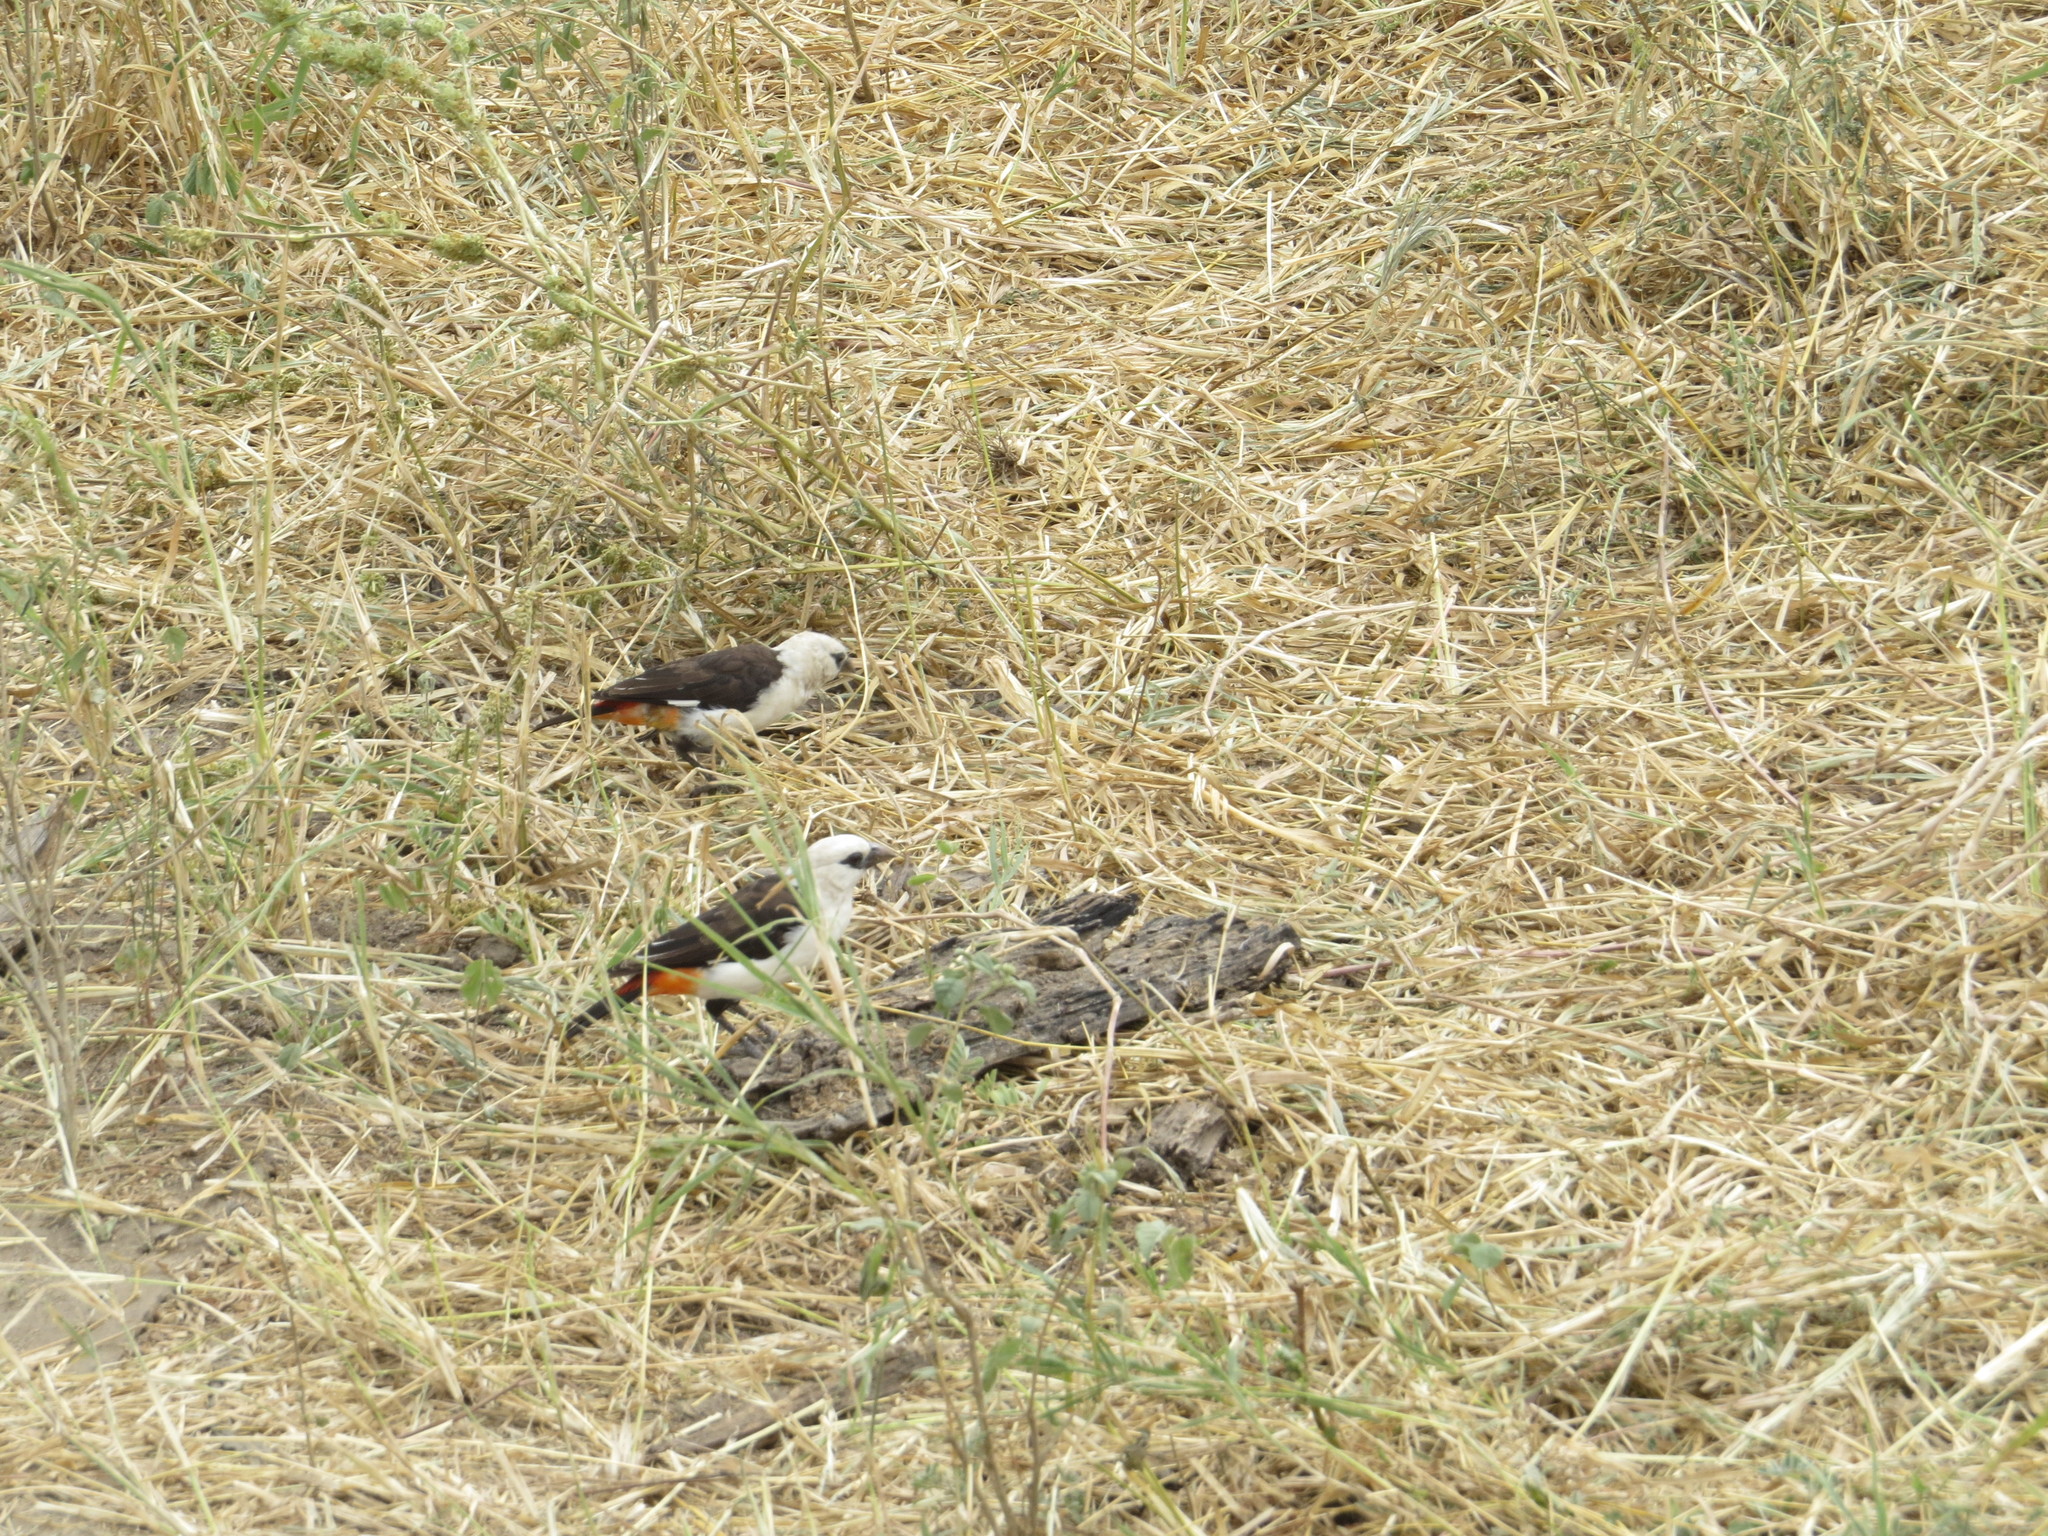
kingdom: Animalia
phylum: Chordata
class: Aves
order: Passeriformes
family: Ploceidae
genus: Dinemellia
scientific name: Dinemellia dinemelli
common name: White-headed buffalo weaver
